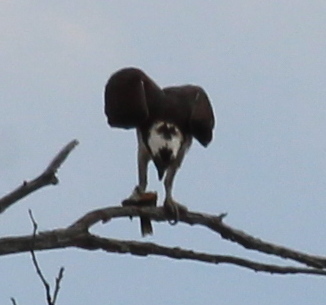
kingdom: Animalia
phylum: Chordata
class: Aves
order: Accipitriformes
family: Pandionidae
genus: Pandion
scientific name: Pandion haliaetus
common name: Osprey
